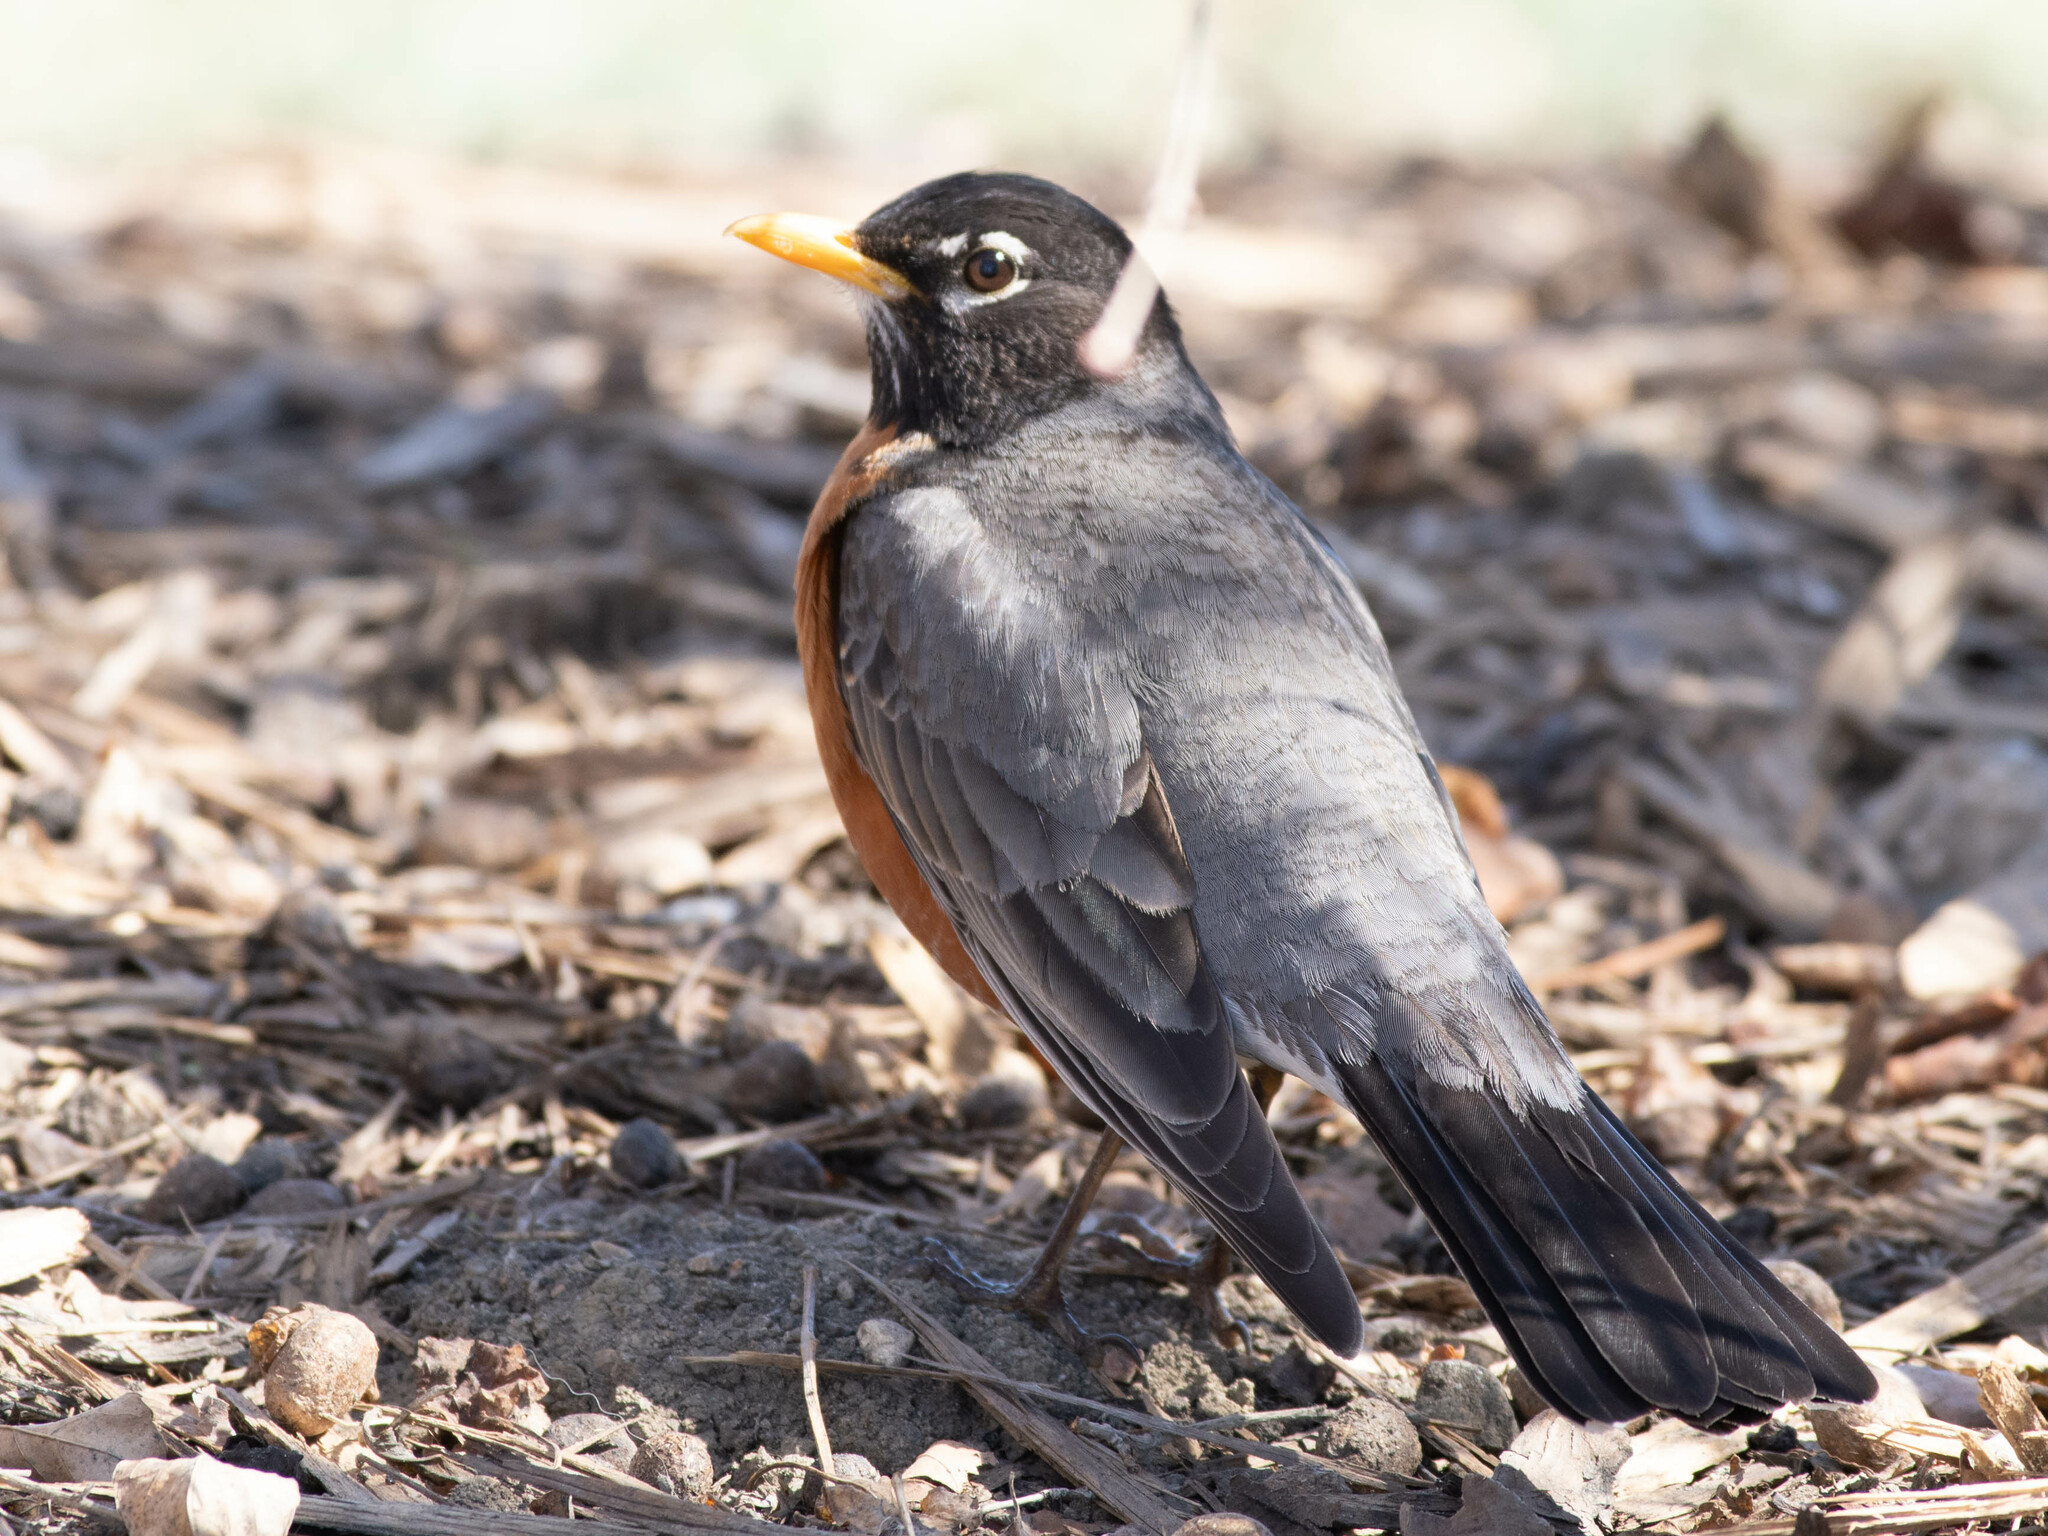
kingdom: Animalia
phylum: Chordata
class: Aves
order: Passeriformes
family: Turdidae
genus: Turdus
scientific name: Turdus migratorius
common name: American robin
